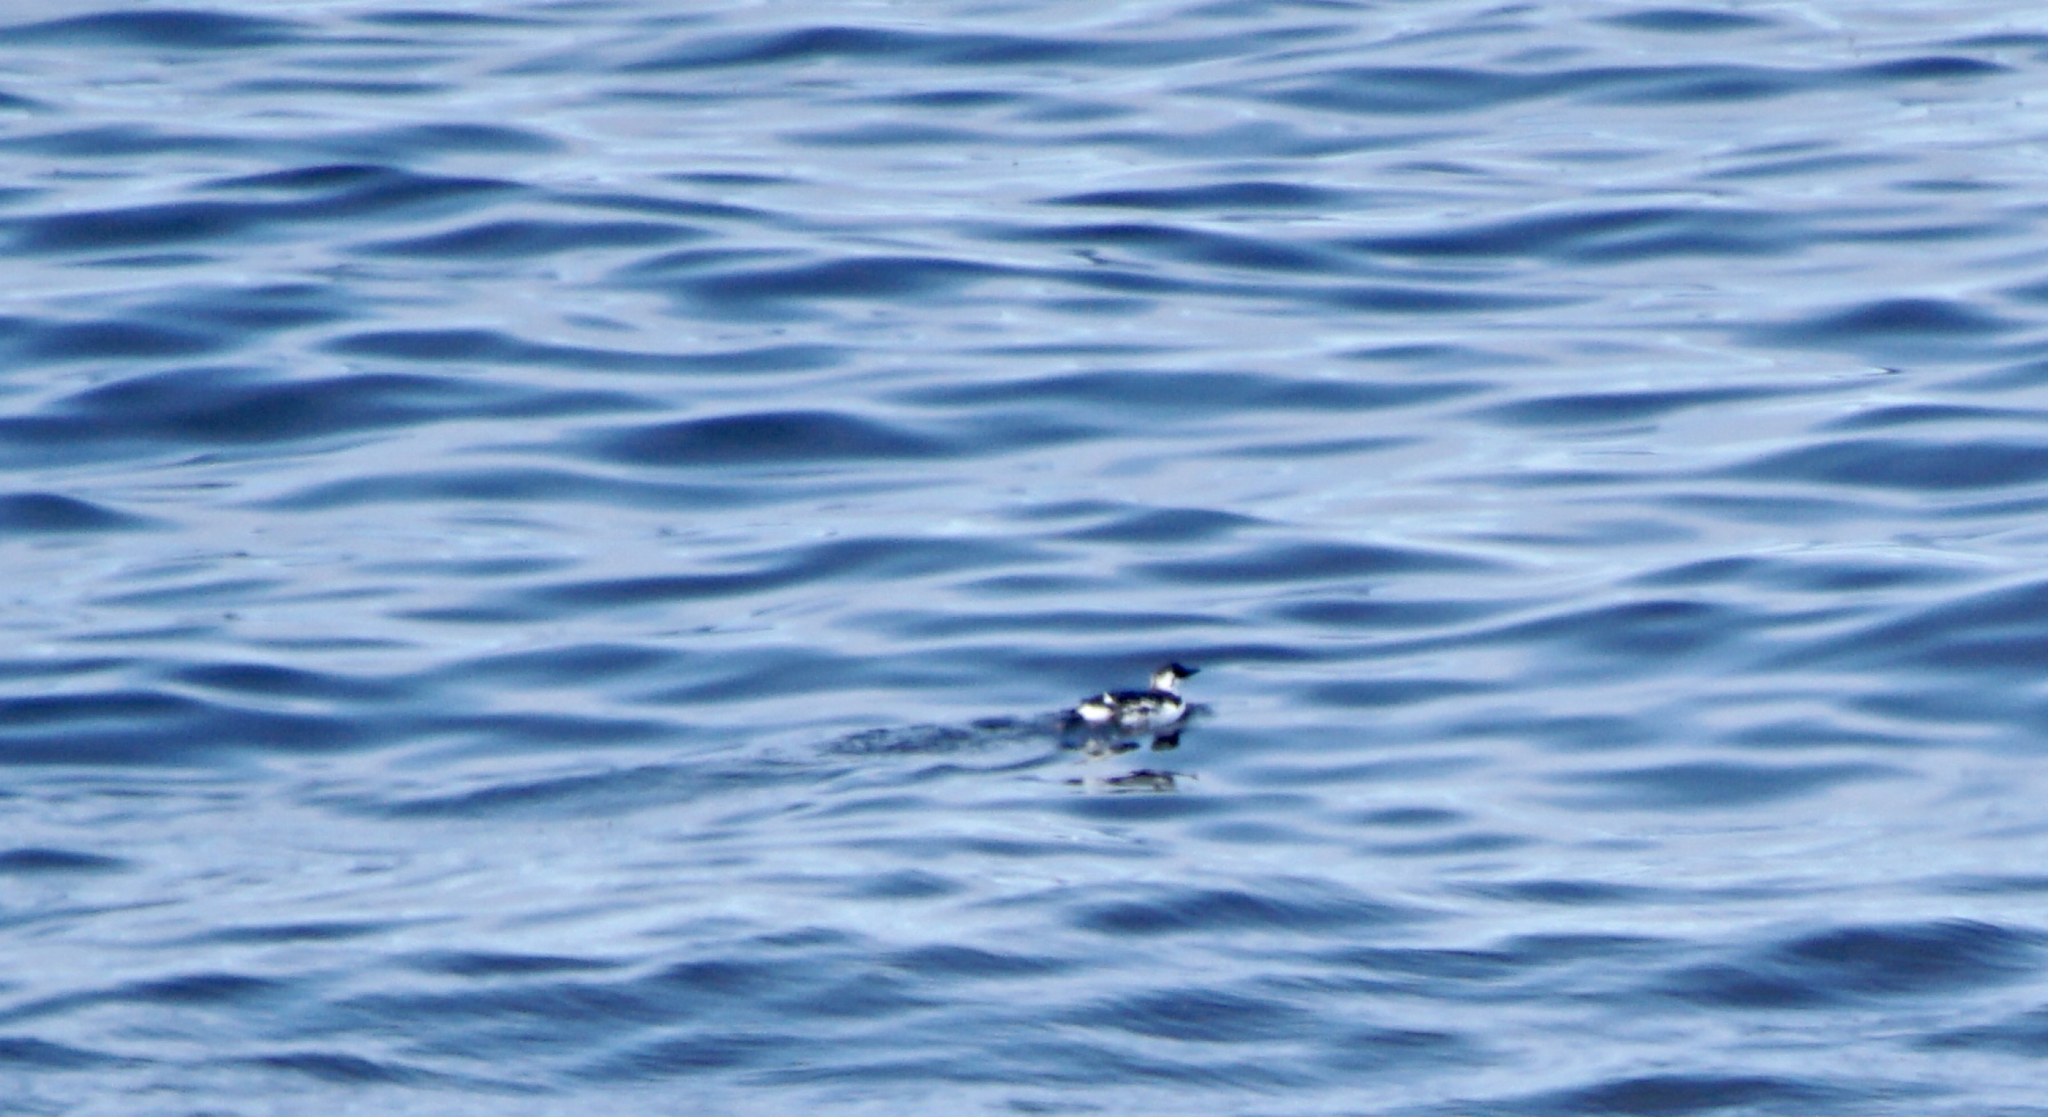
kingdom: Animalia
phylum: Chordata
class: Aves
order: Charadriiformes
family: Alcidae
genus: Uria
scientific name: Uria aalge
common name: Common murre
